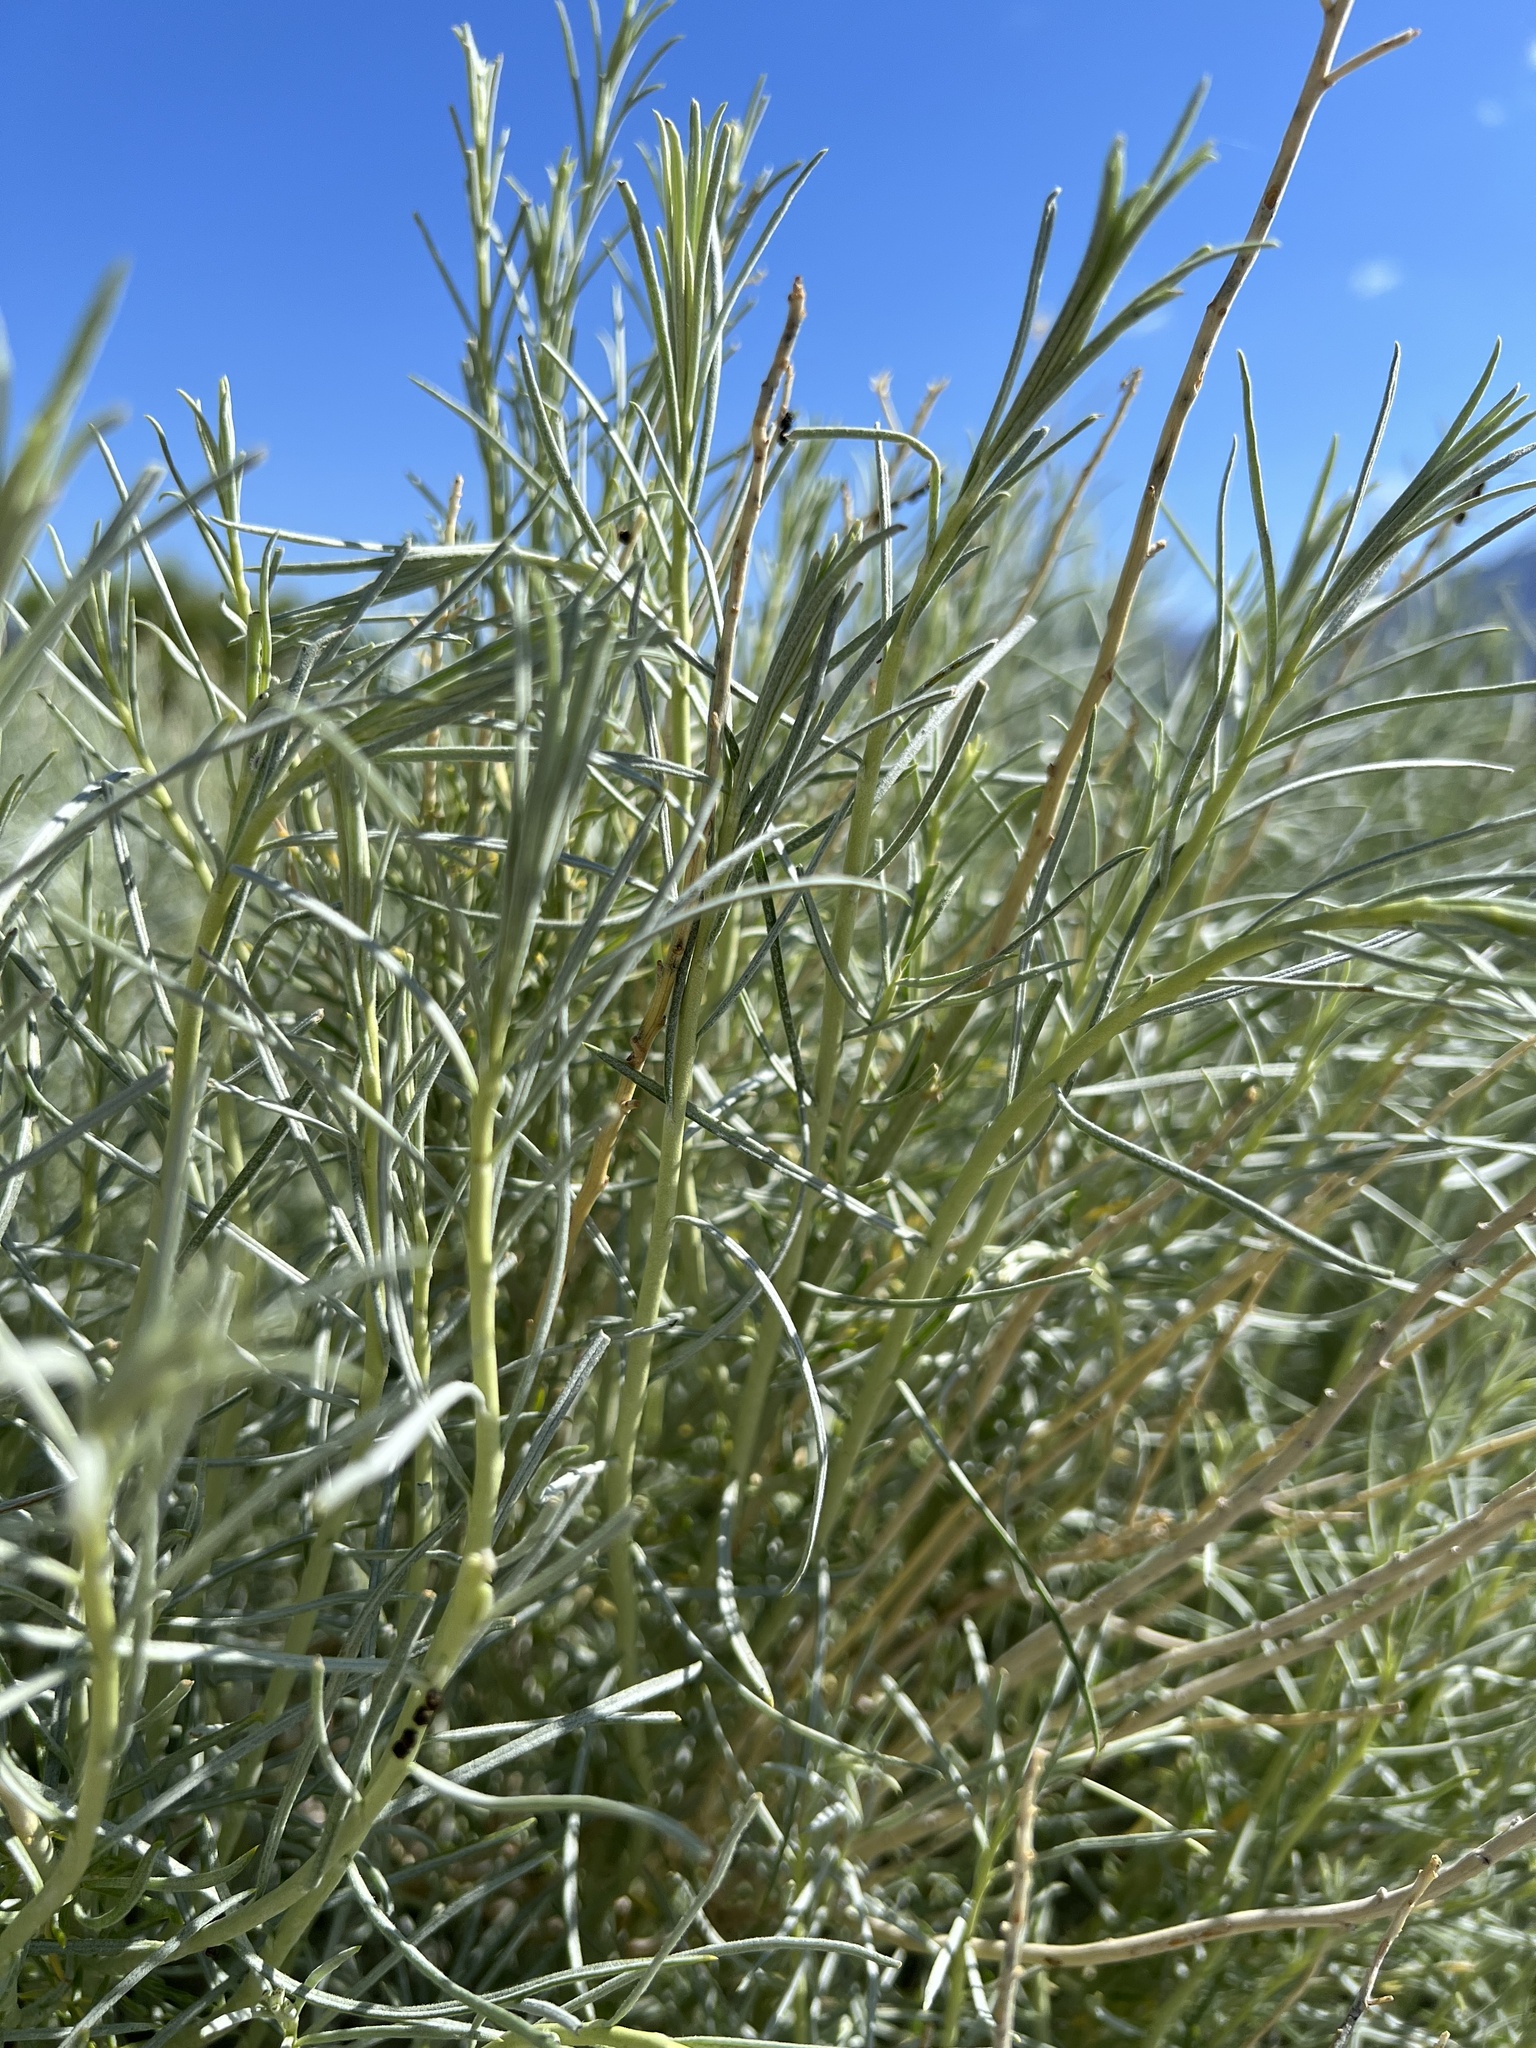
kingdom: Plantae
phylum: Tracheophyta
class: Magnoliopsida
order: Asterales
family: Asteraceae
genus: Ericameria
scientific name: Ericameria nauseosa
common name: Rubber rabbitbrush
